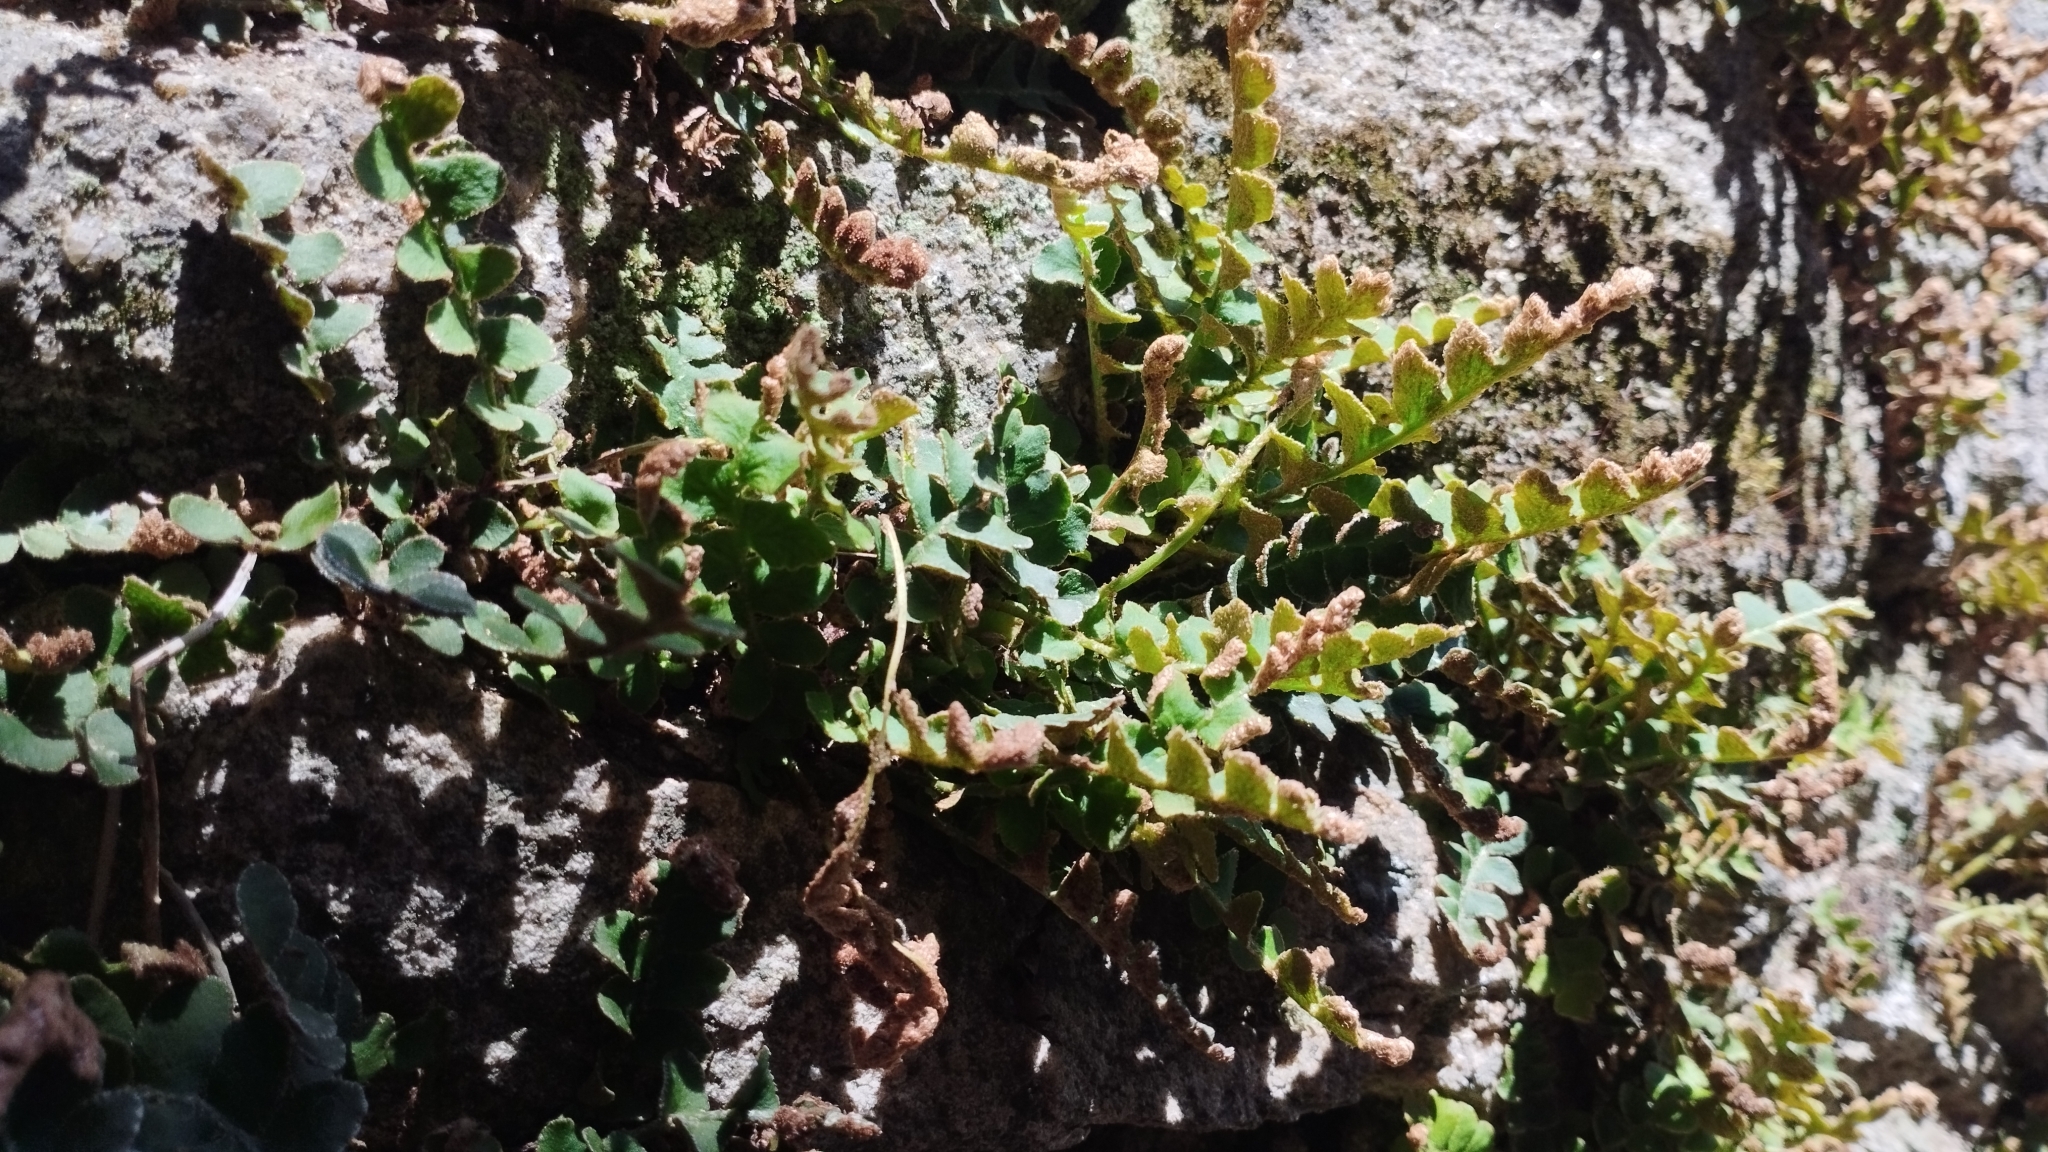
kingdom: Plantae
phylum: Tracheophyta
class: Polypodiopsida
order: Polypodiales
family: Aspleniaceae
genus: Asplenium
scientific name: Asplenium ceterach
